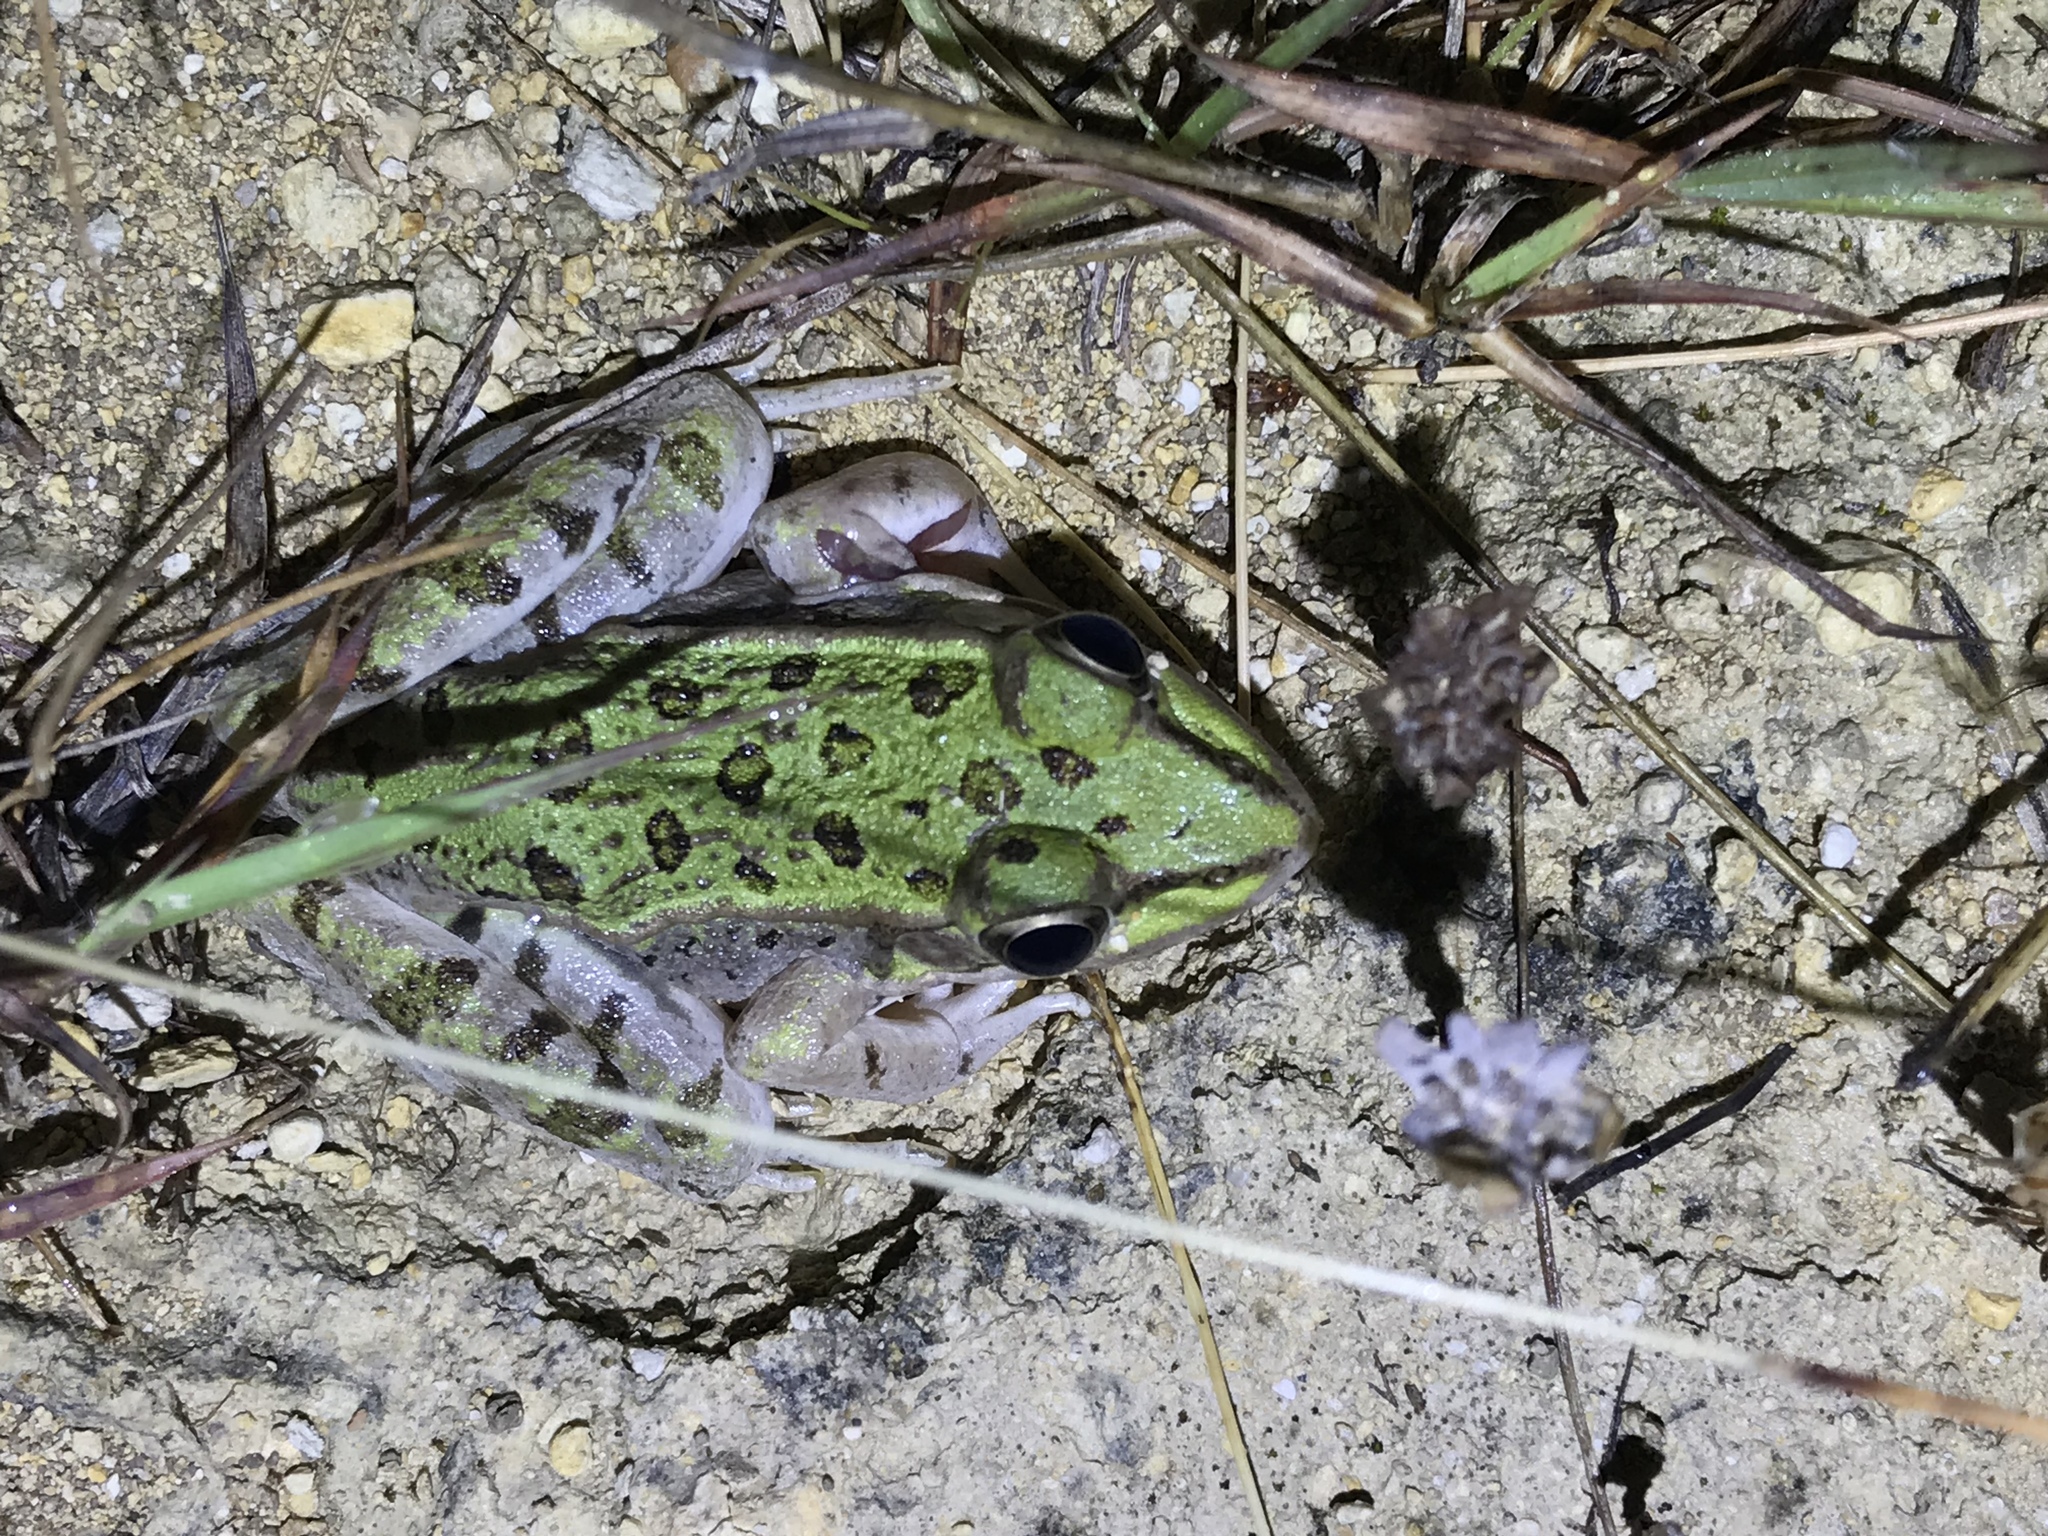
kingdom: Animalia
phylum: Chordata
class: Amphibia
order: Anura
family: Ranidae
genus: Lithobates
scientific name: Lithobates berlandieri
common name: Rio grande leopard frog
